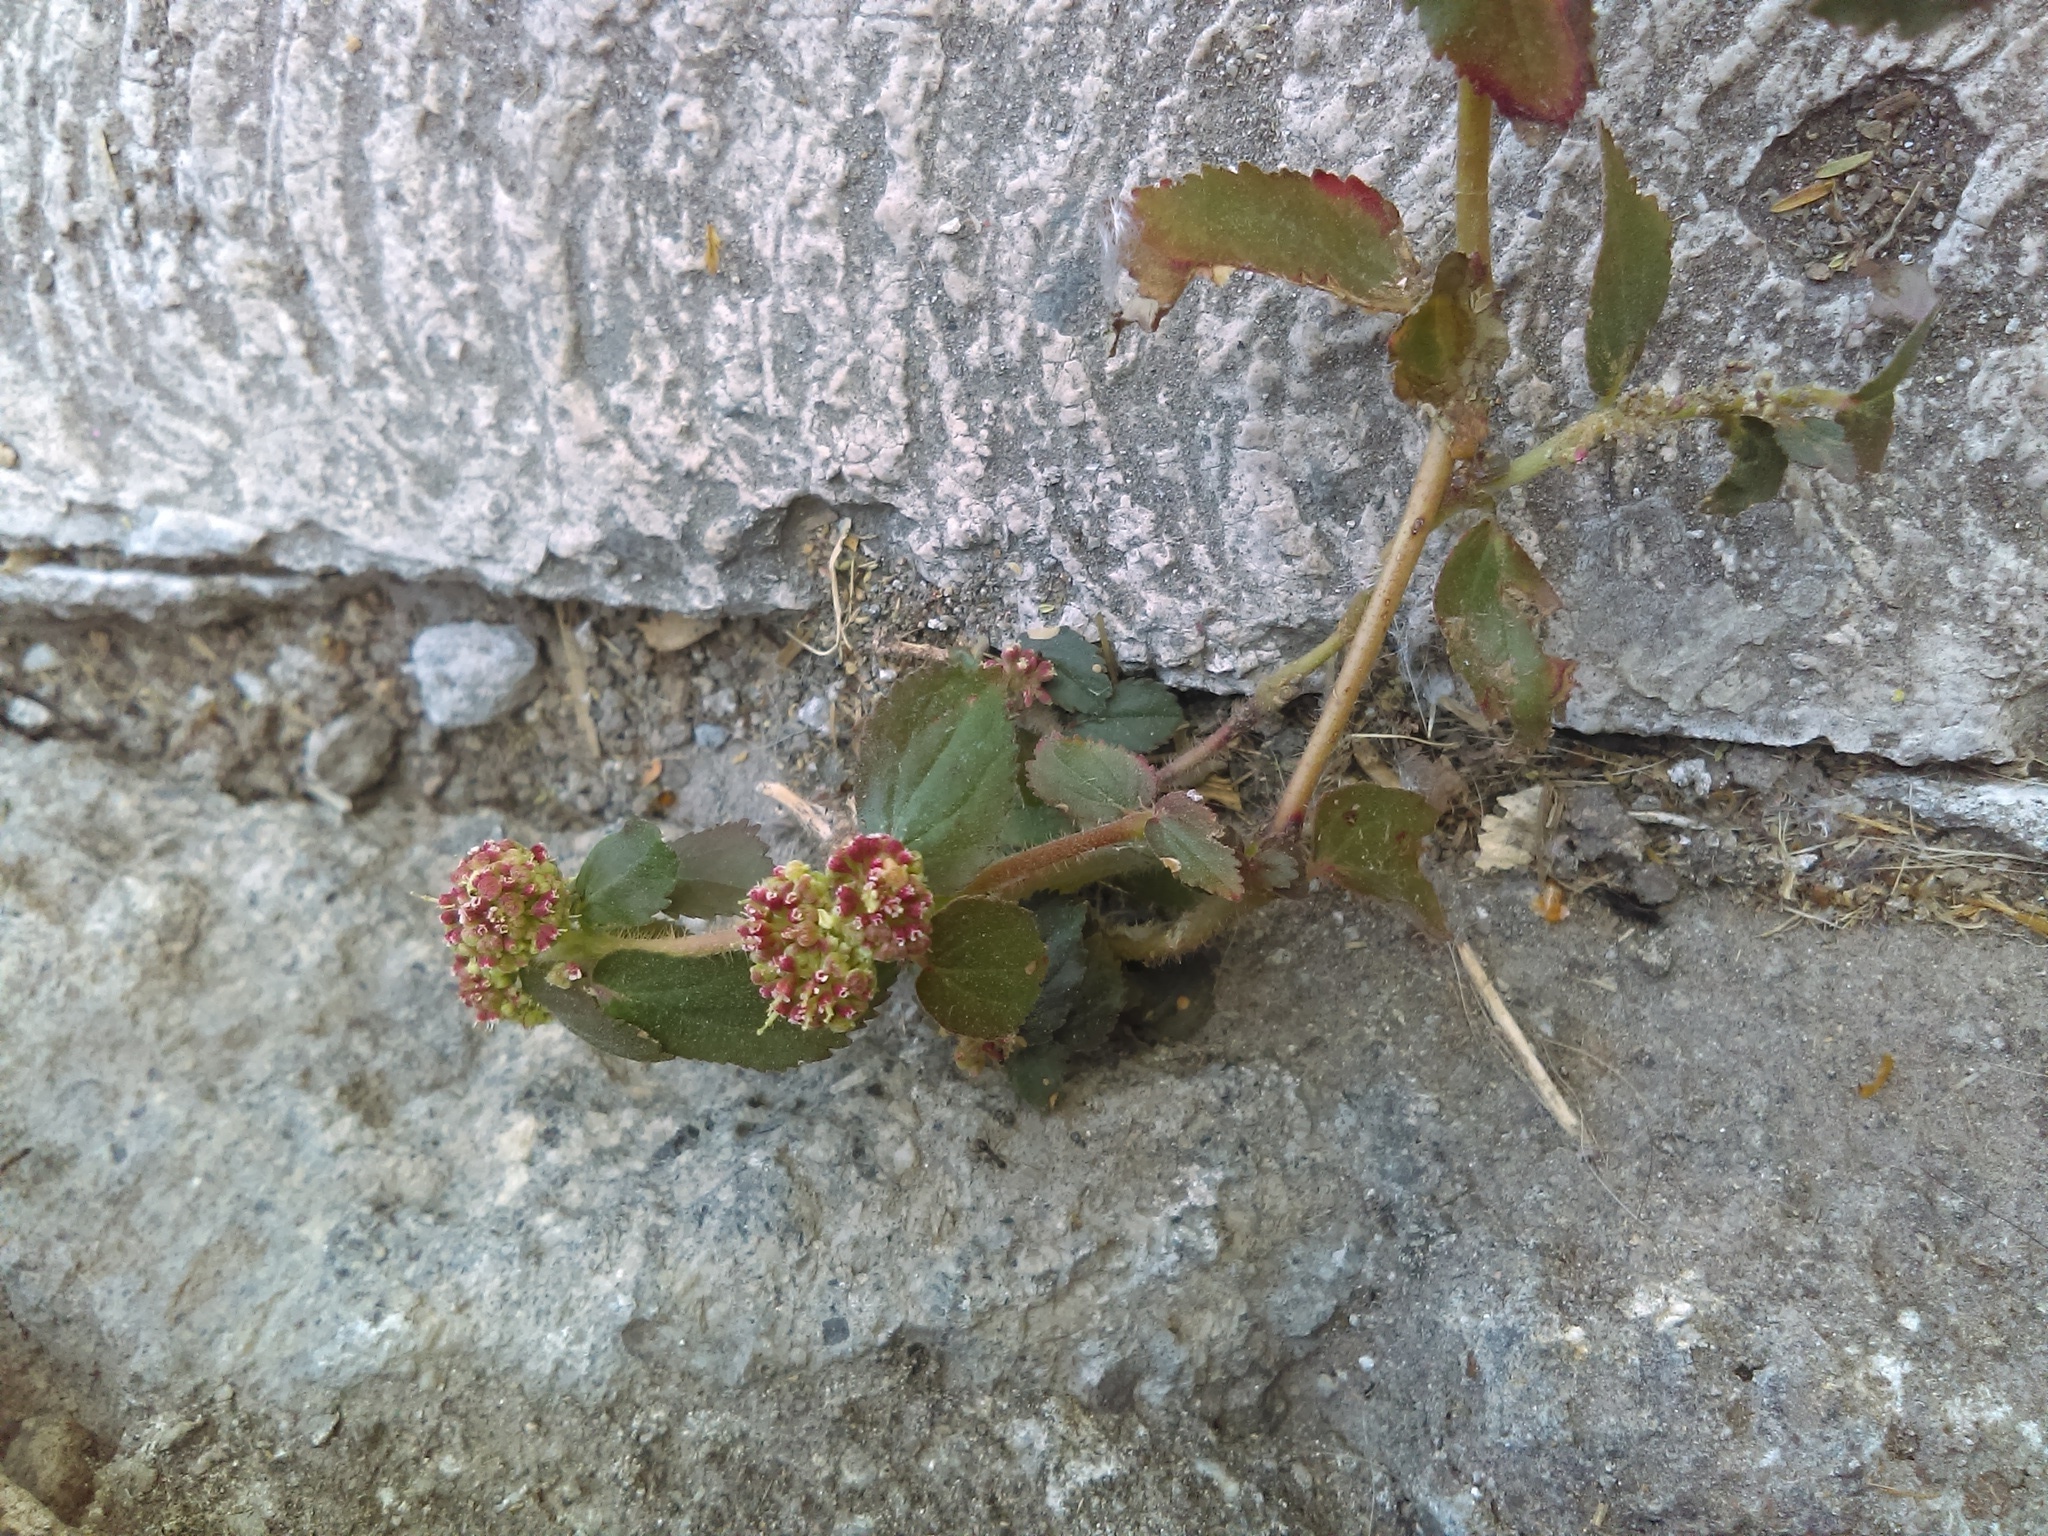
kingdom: Plantae
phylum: Tracheophyta
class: Magnoliopsida
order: Malpighiales
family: Euphorbiaceae
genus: Euphorbia
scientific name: Euphorbia hirta
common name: Pillpod sandmat
